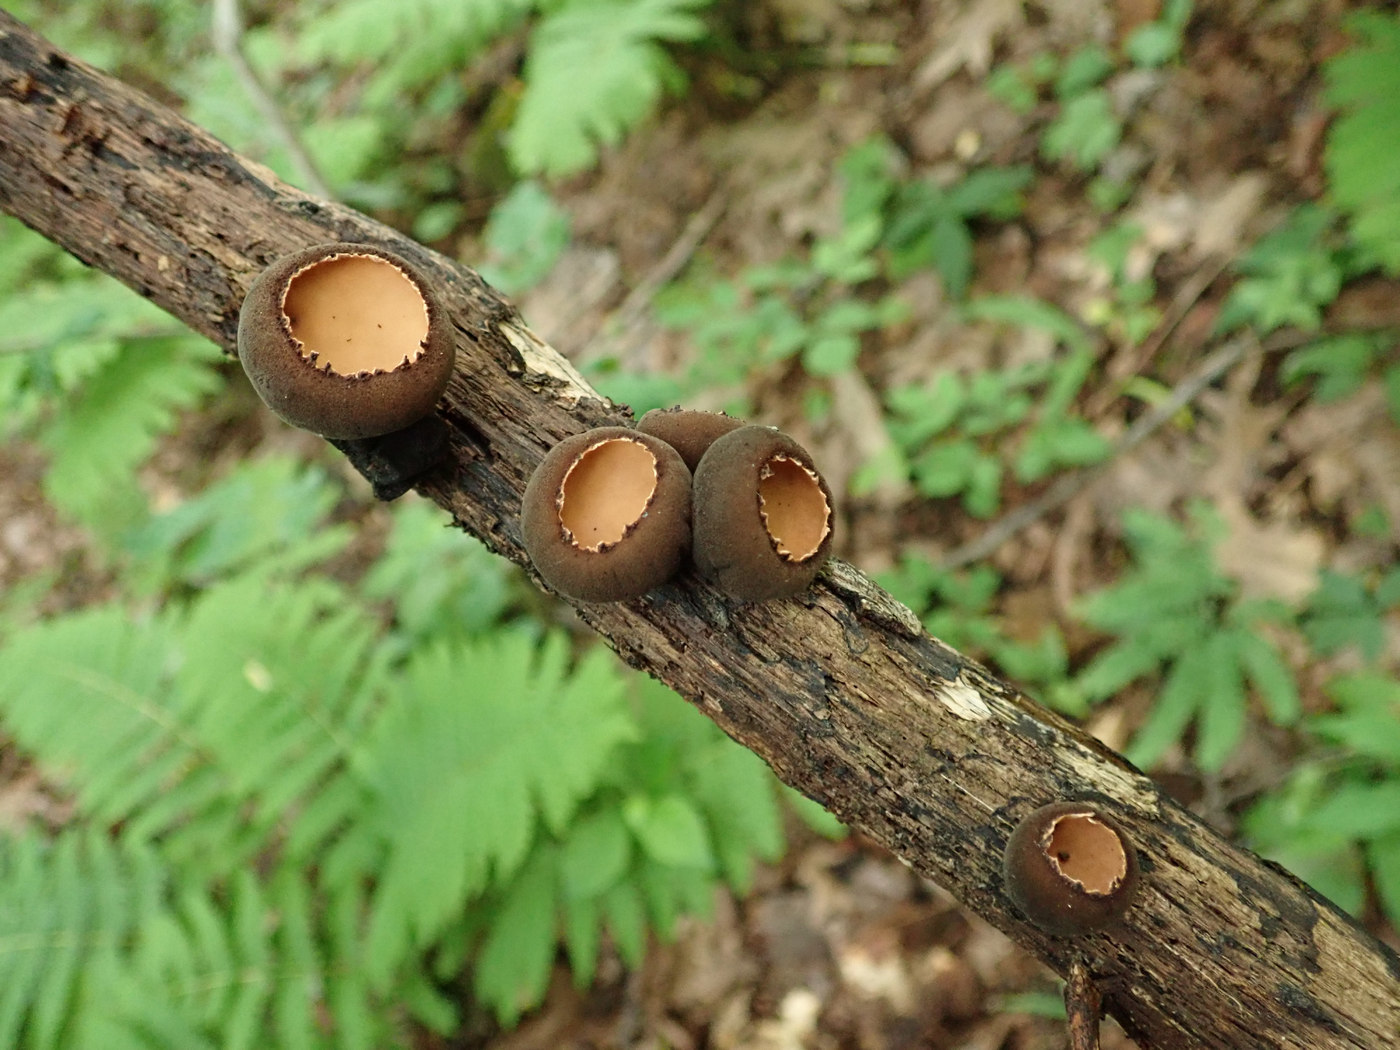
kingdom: Fungi
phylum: Ascomycota
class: Pezizomycetes
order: Pezizales
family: Sarcosomataceae
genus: Galiella
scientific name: Galiella rufa
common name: Hairy rubber cup
